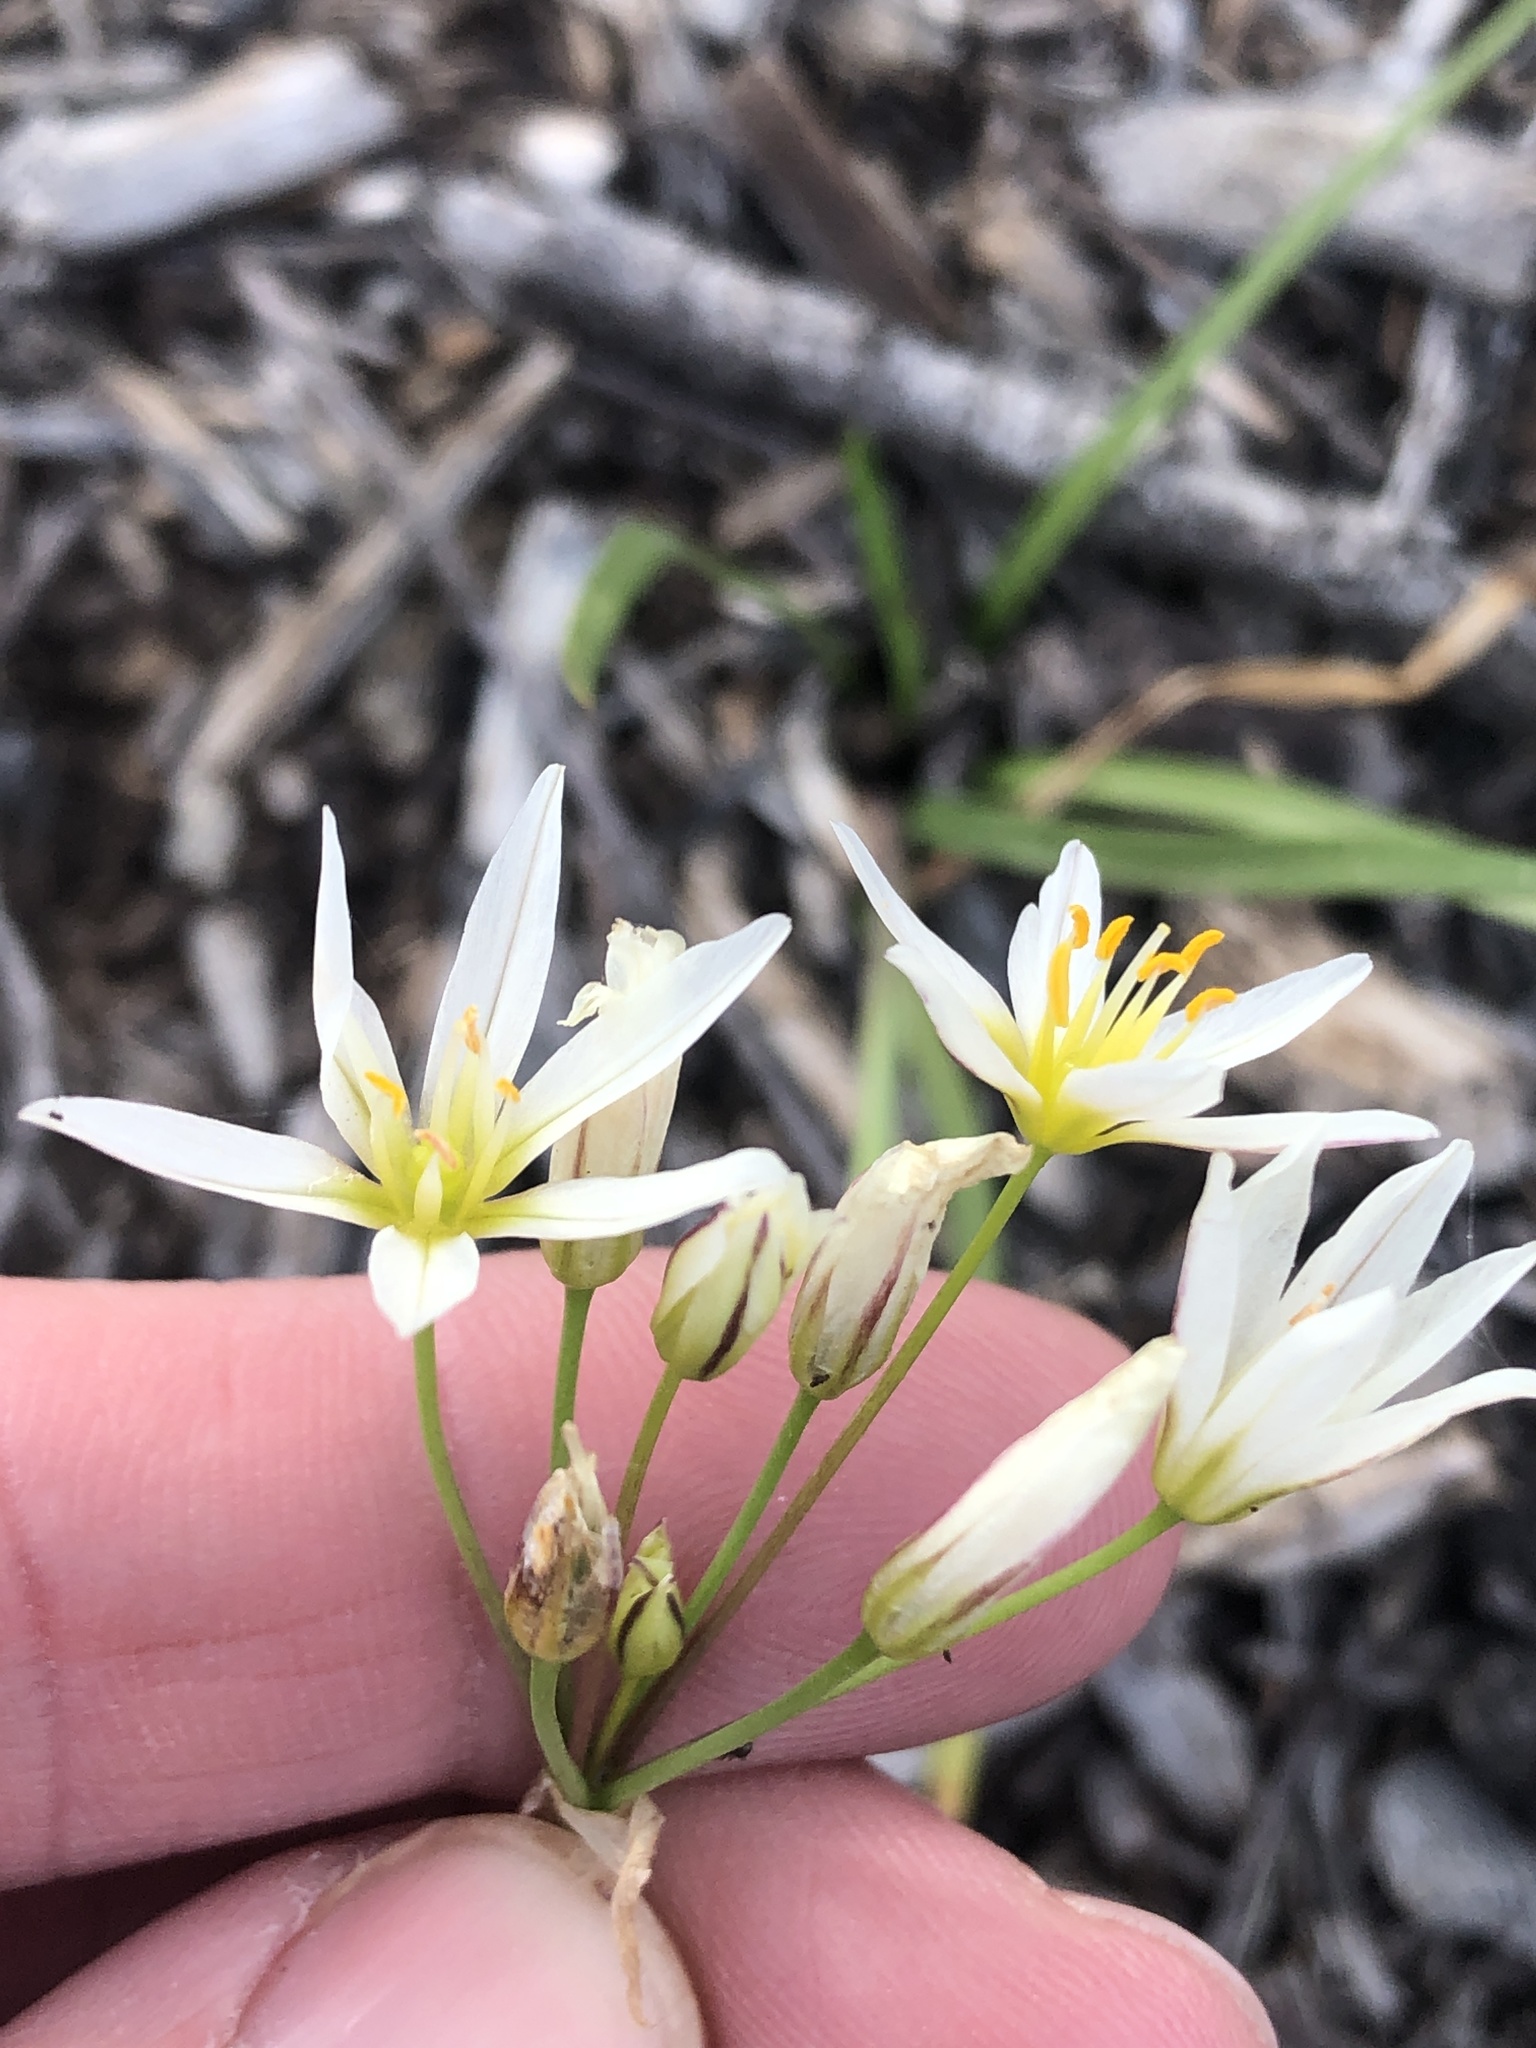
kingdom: Plantae
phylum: Tracheophyta
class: Liliopsida
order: Asparagales
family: Amaryllidaceae
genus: Nothoscordum
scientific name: Nothoscordum bivalve
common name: Crow-poison
